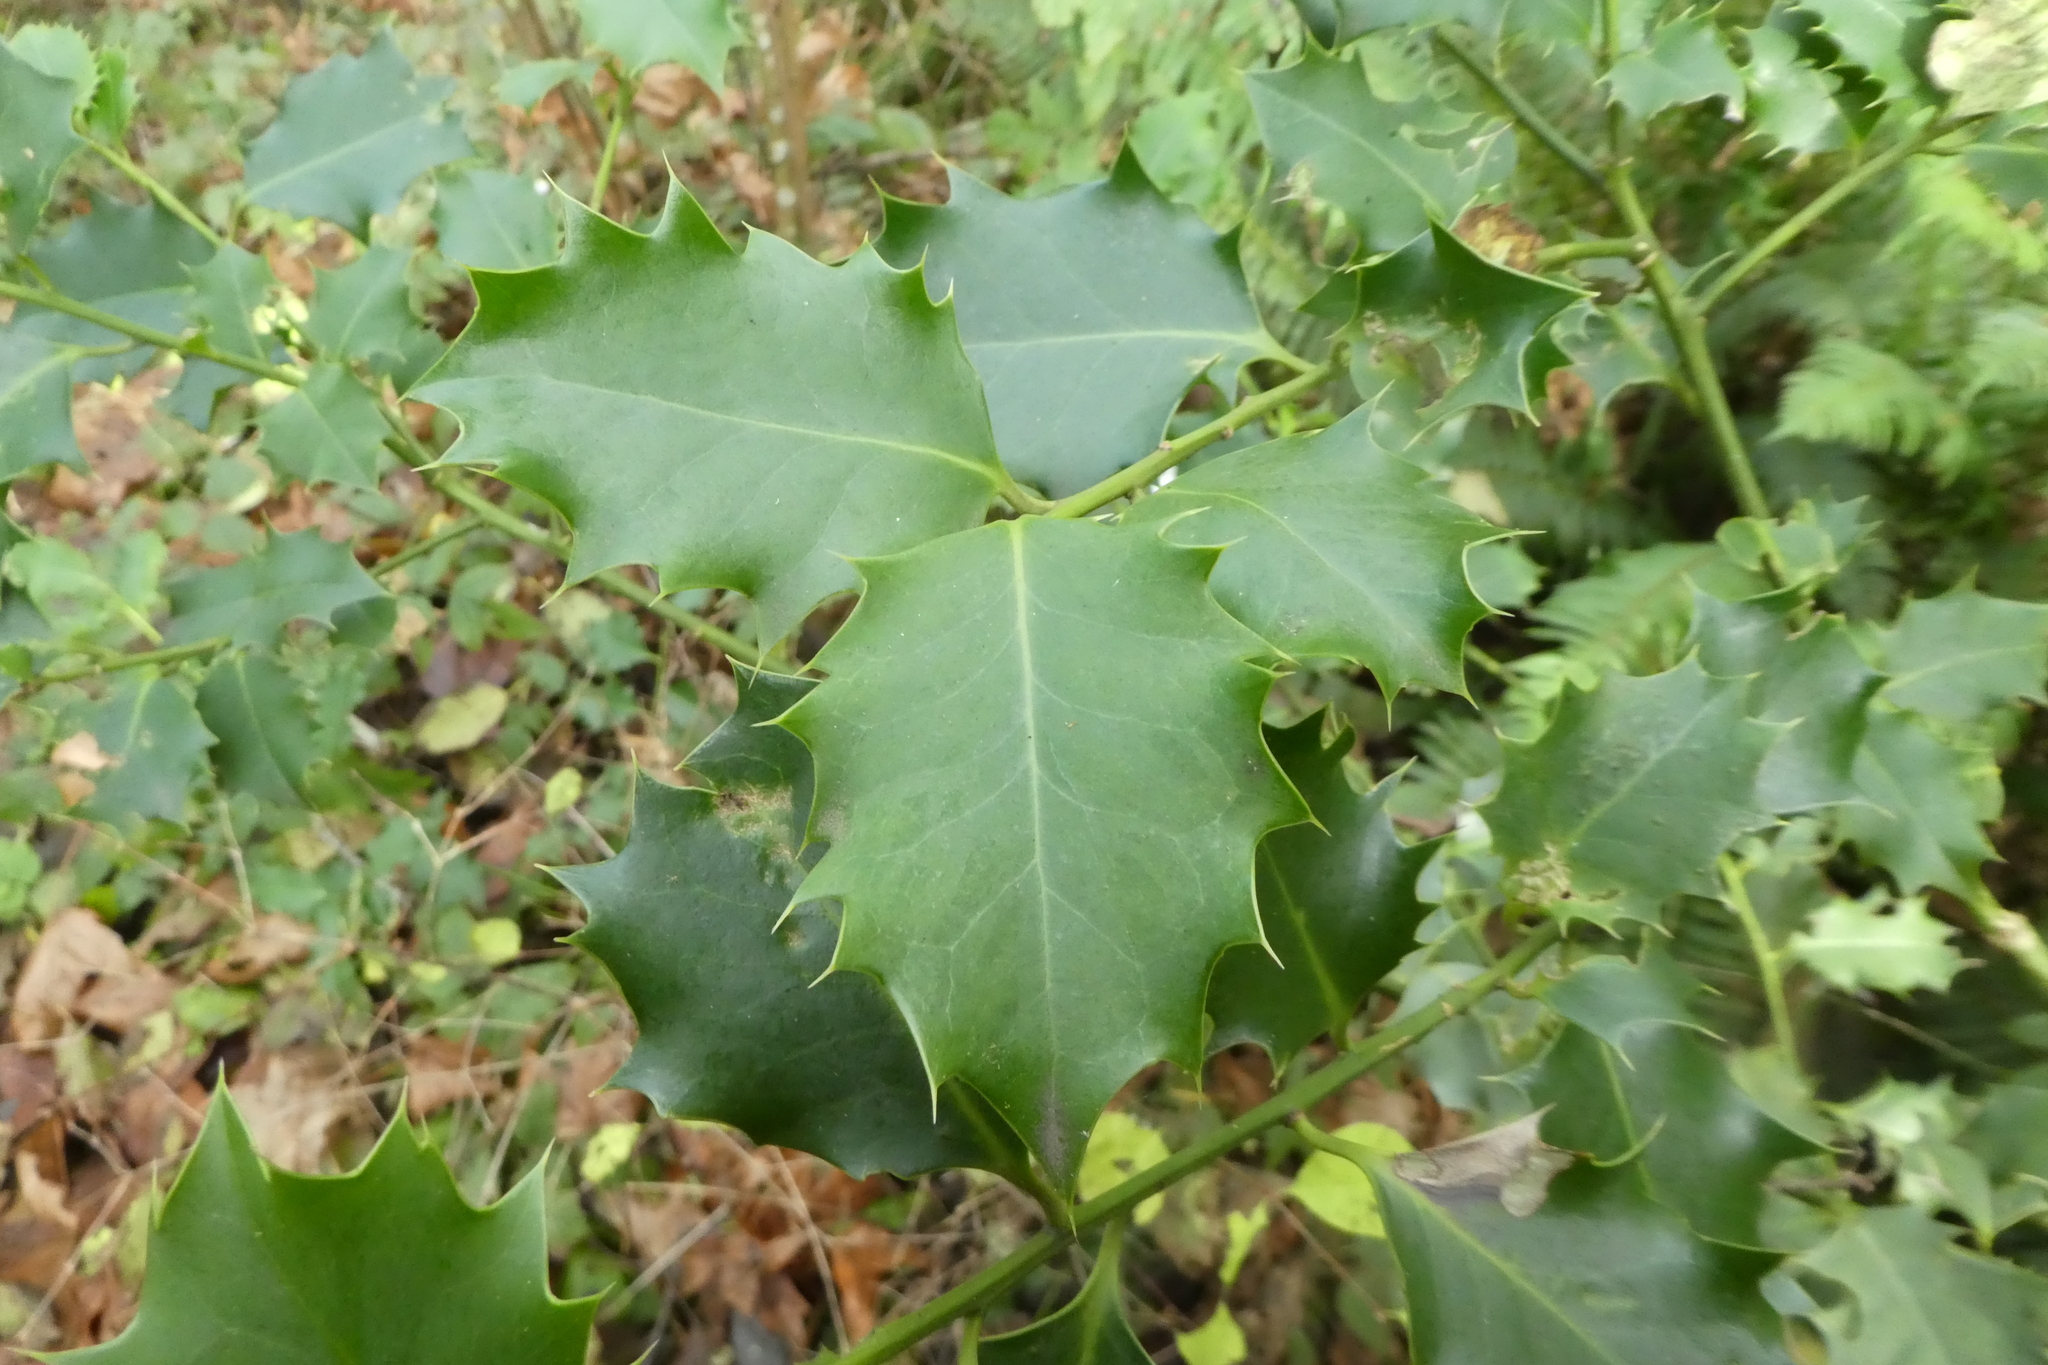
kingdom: Plantae
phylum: Tracheophyta
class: Magnoliopsida
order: Aquifoliales
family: Aquifoliaceae
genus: Ilex
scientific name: Ilex aquifolium
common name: English holly
